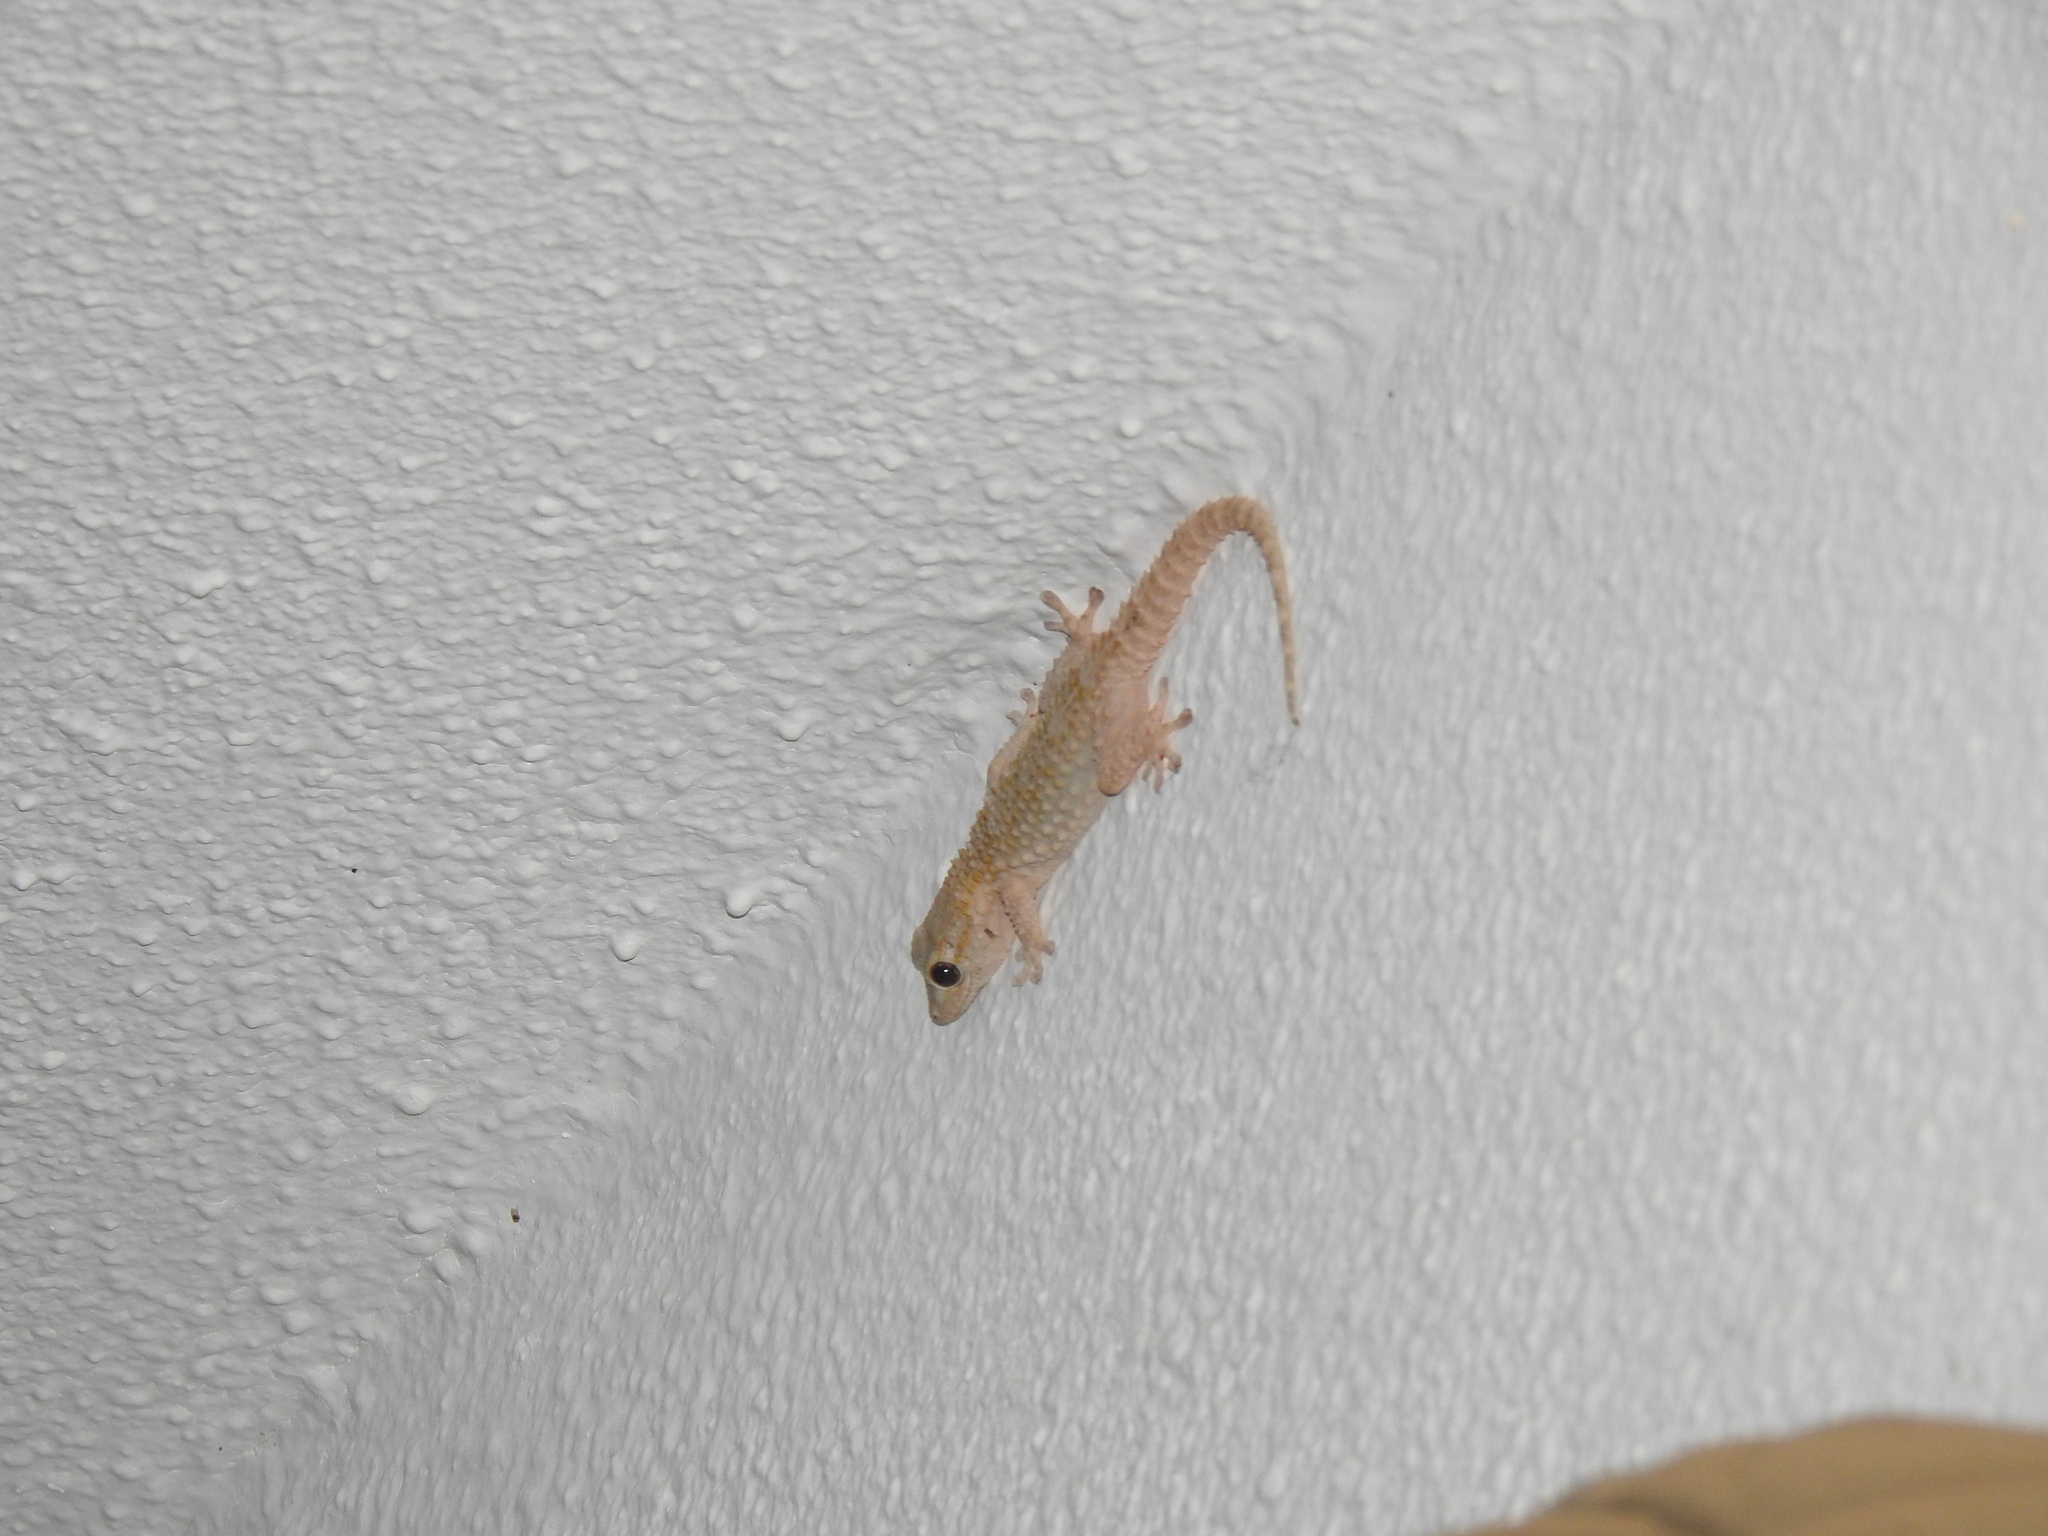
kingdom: Animalia
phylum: Chordata
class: Squamata
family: Phyllodactylidae
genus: Tarentola
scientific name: Tarentola mauritanica
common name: Moorish gecko
